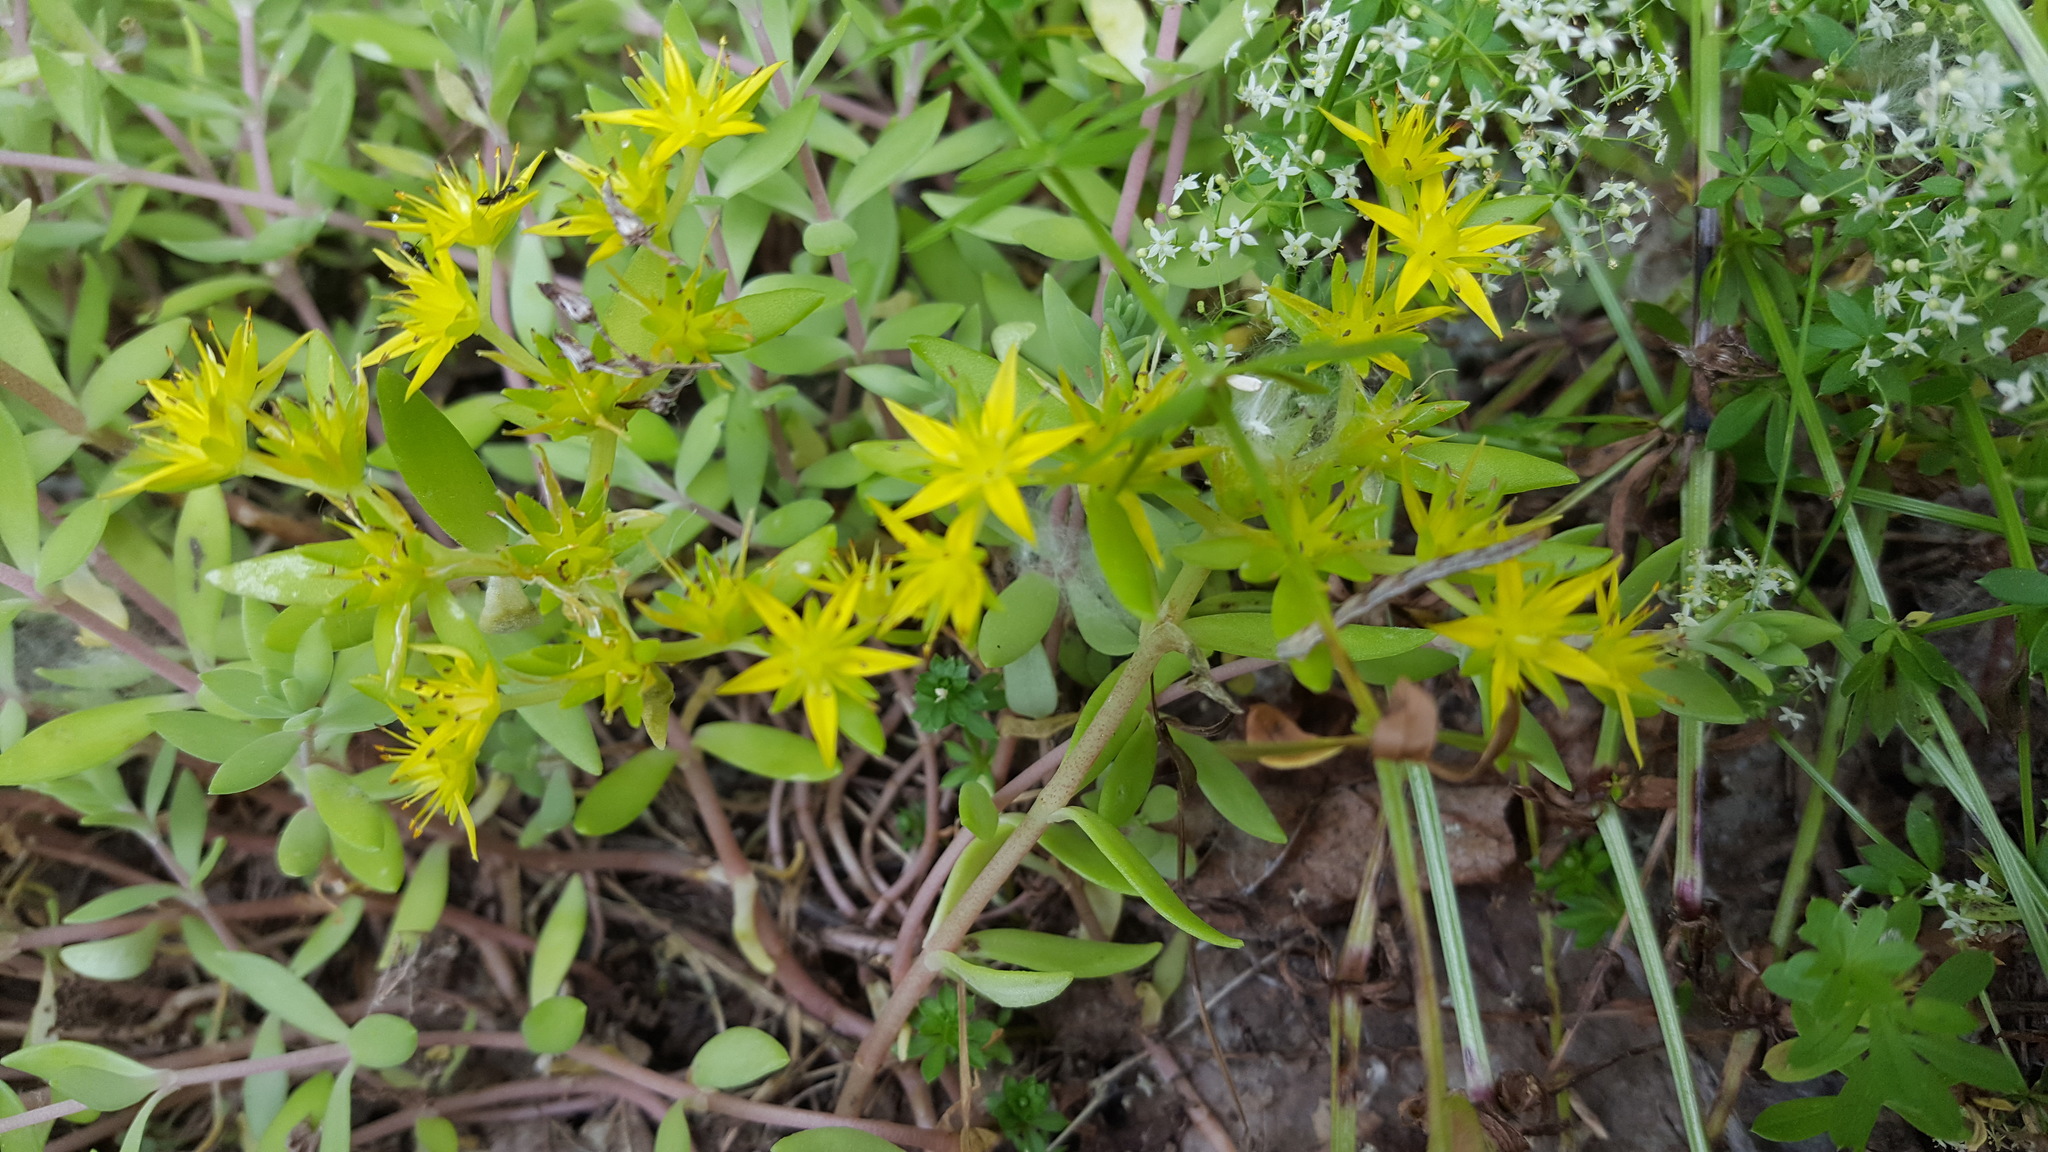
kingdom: Plantae
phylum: Tracheophyta
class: Magnoliopsida
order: Saxifragales
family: Crassulaceae
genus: Sedum
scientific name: Sedum sarmentosum
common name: Stringy stonecrop
